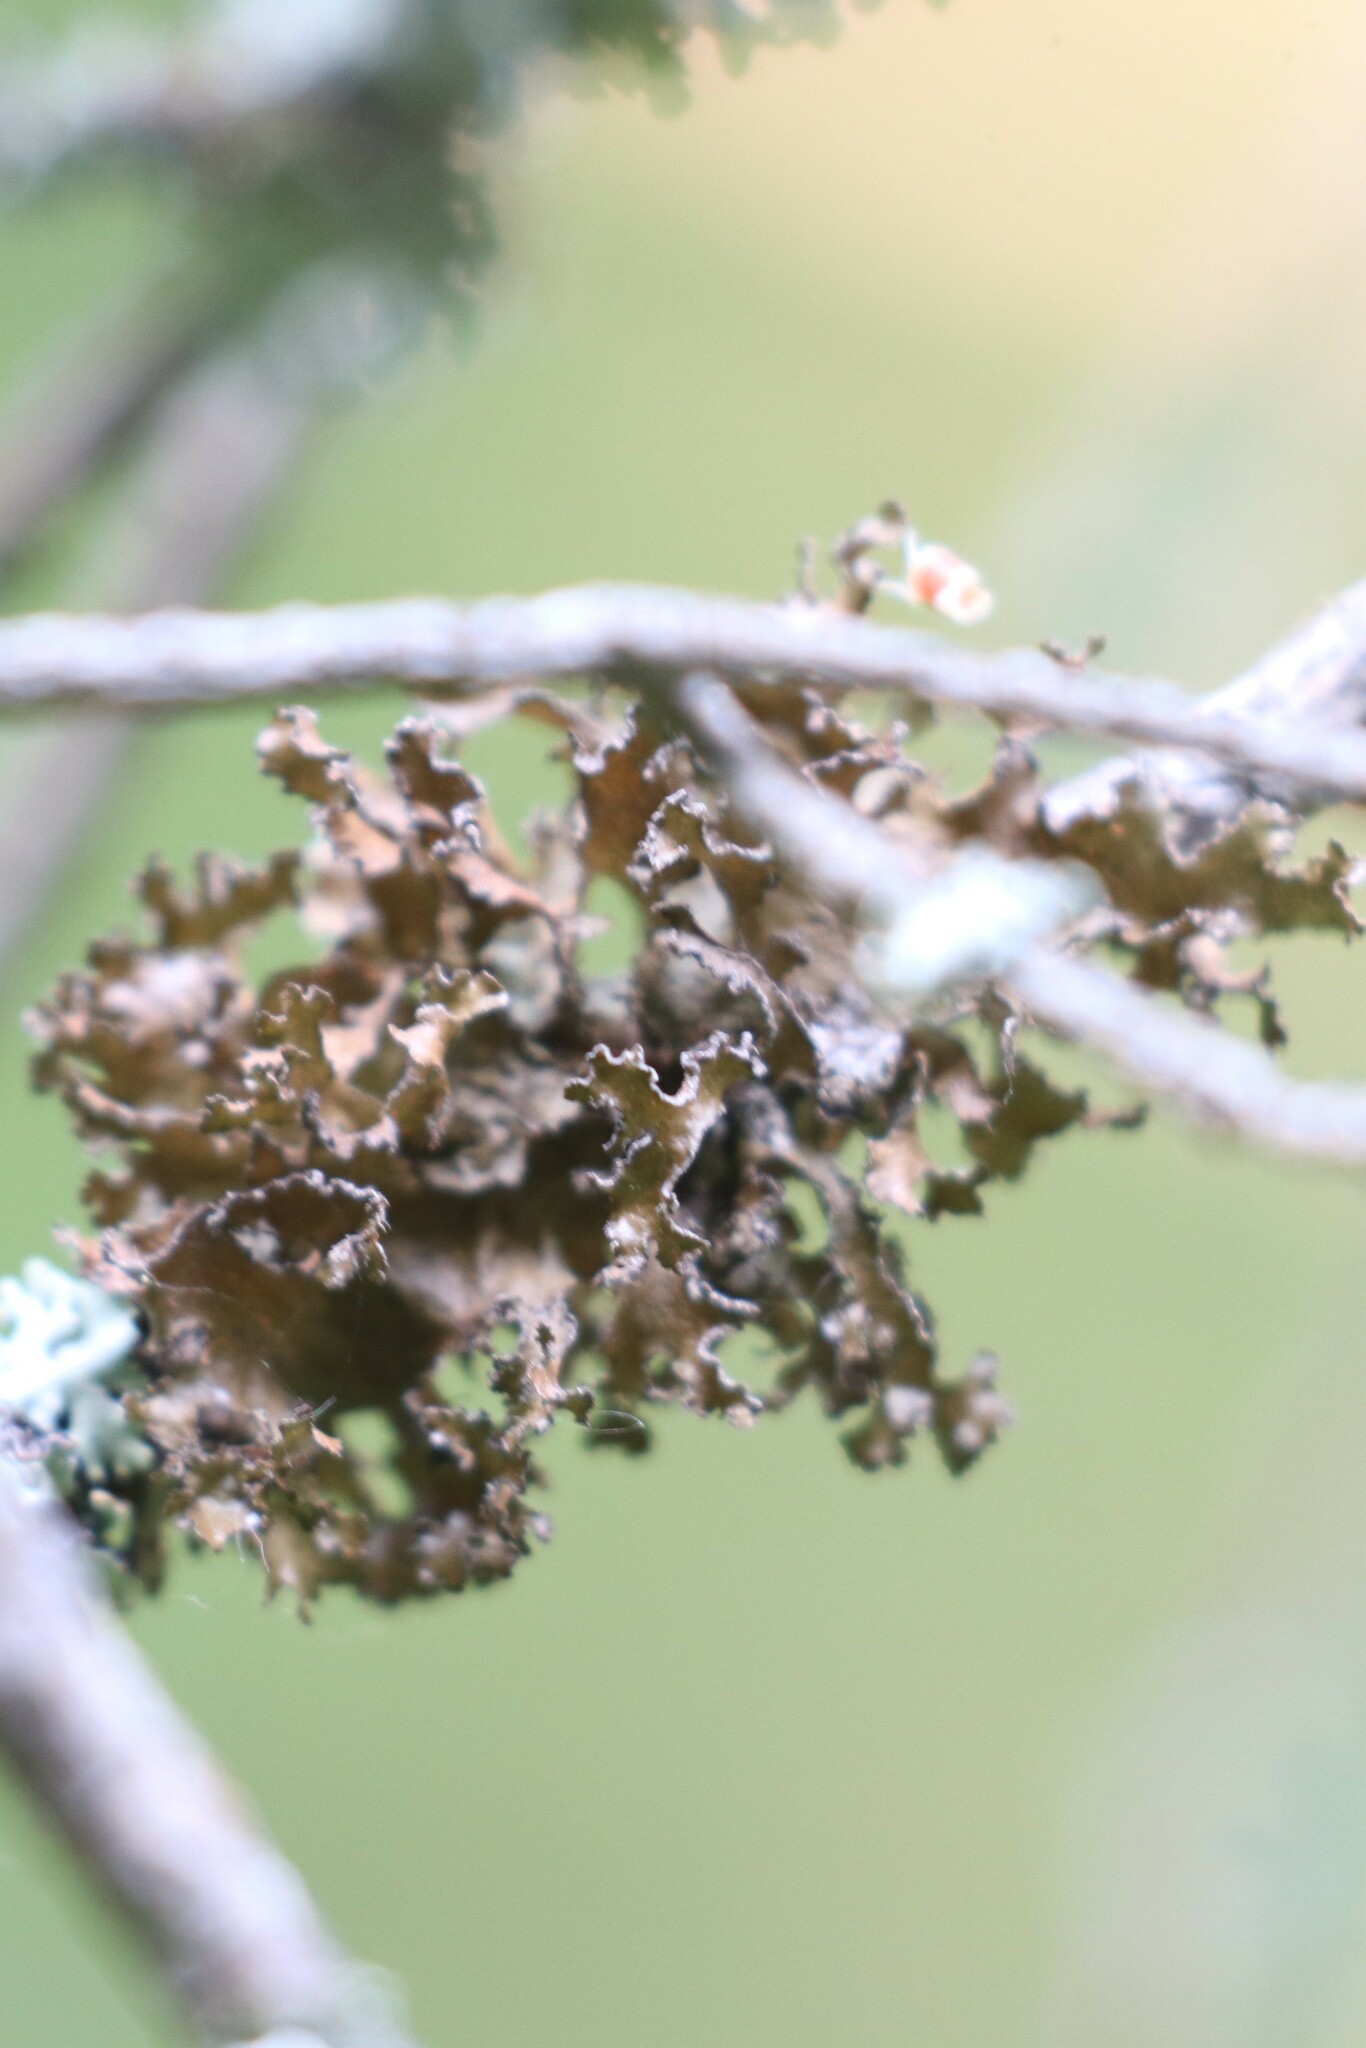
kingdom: Fungi
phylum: Ascomycota
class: Lecanoromycetes
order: Lecanorales
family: Parmeliaceae
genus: Nephromopsis
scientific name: Nephromopsis chlorophylla
